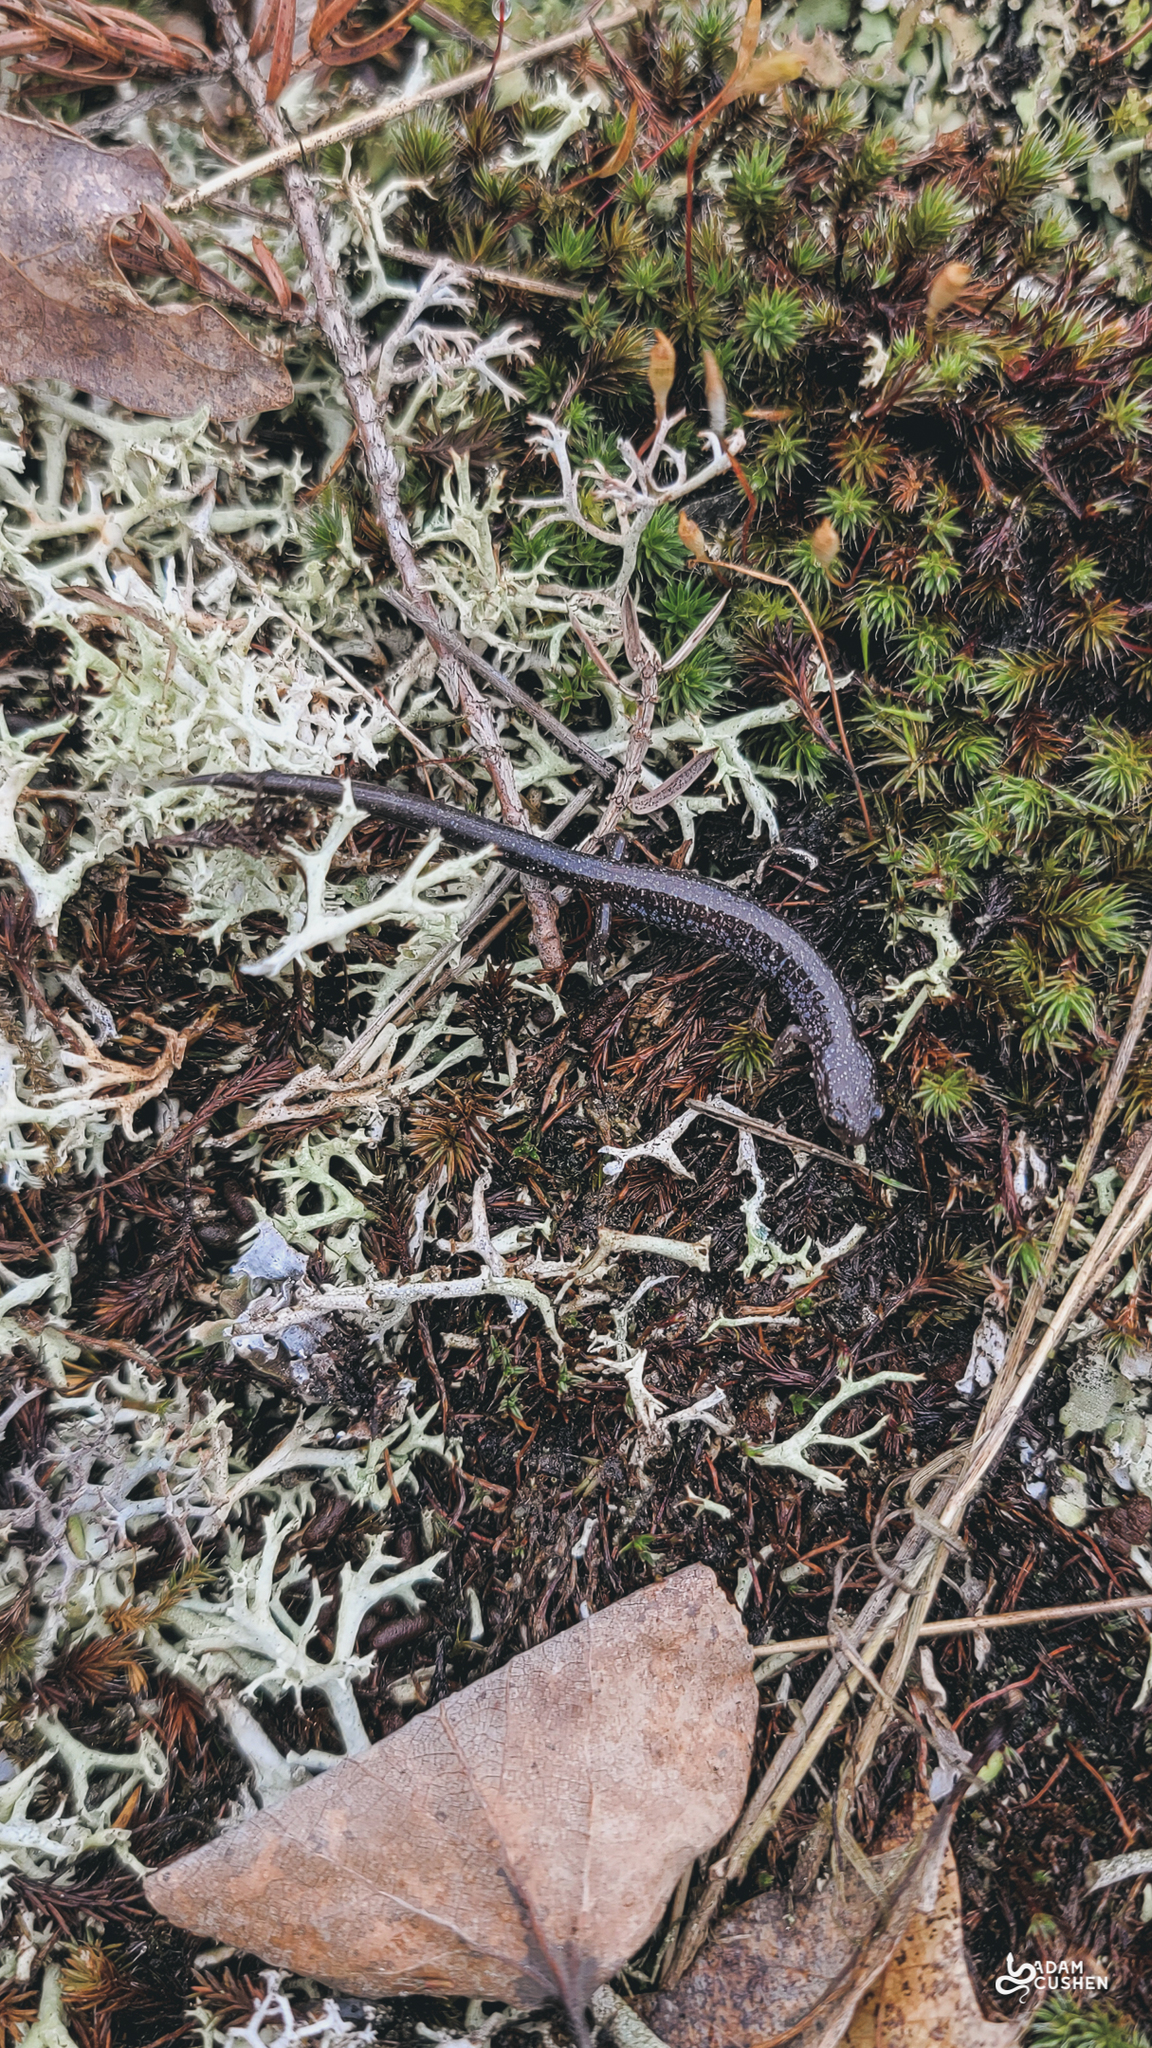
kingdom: Animalia
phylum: Chordata
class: Amphibia
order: Caudata
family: Plethodontidae
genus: Plethodon
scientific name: Plethodon cinereus
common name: Redback salamander
